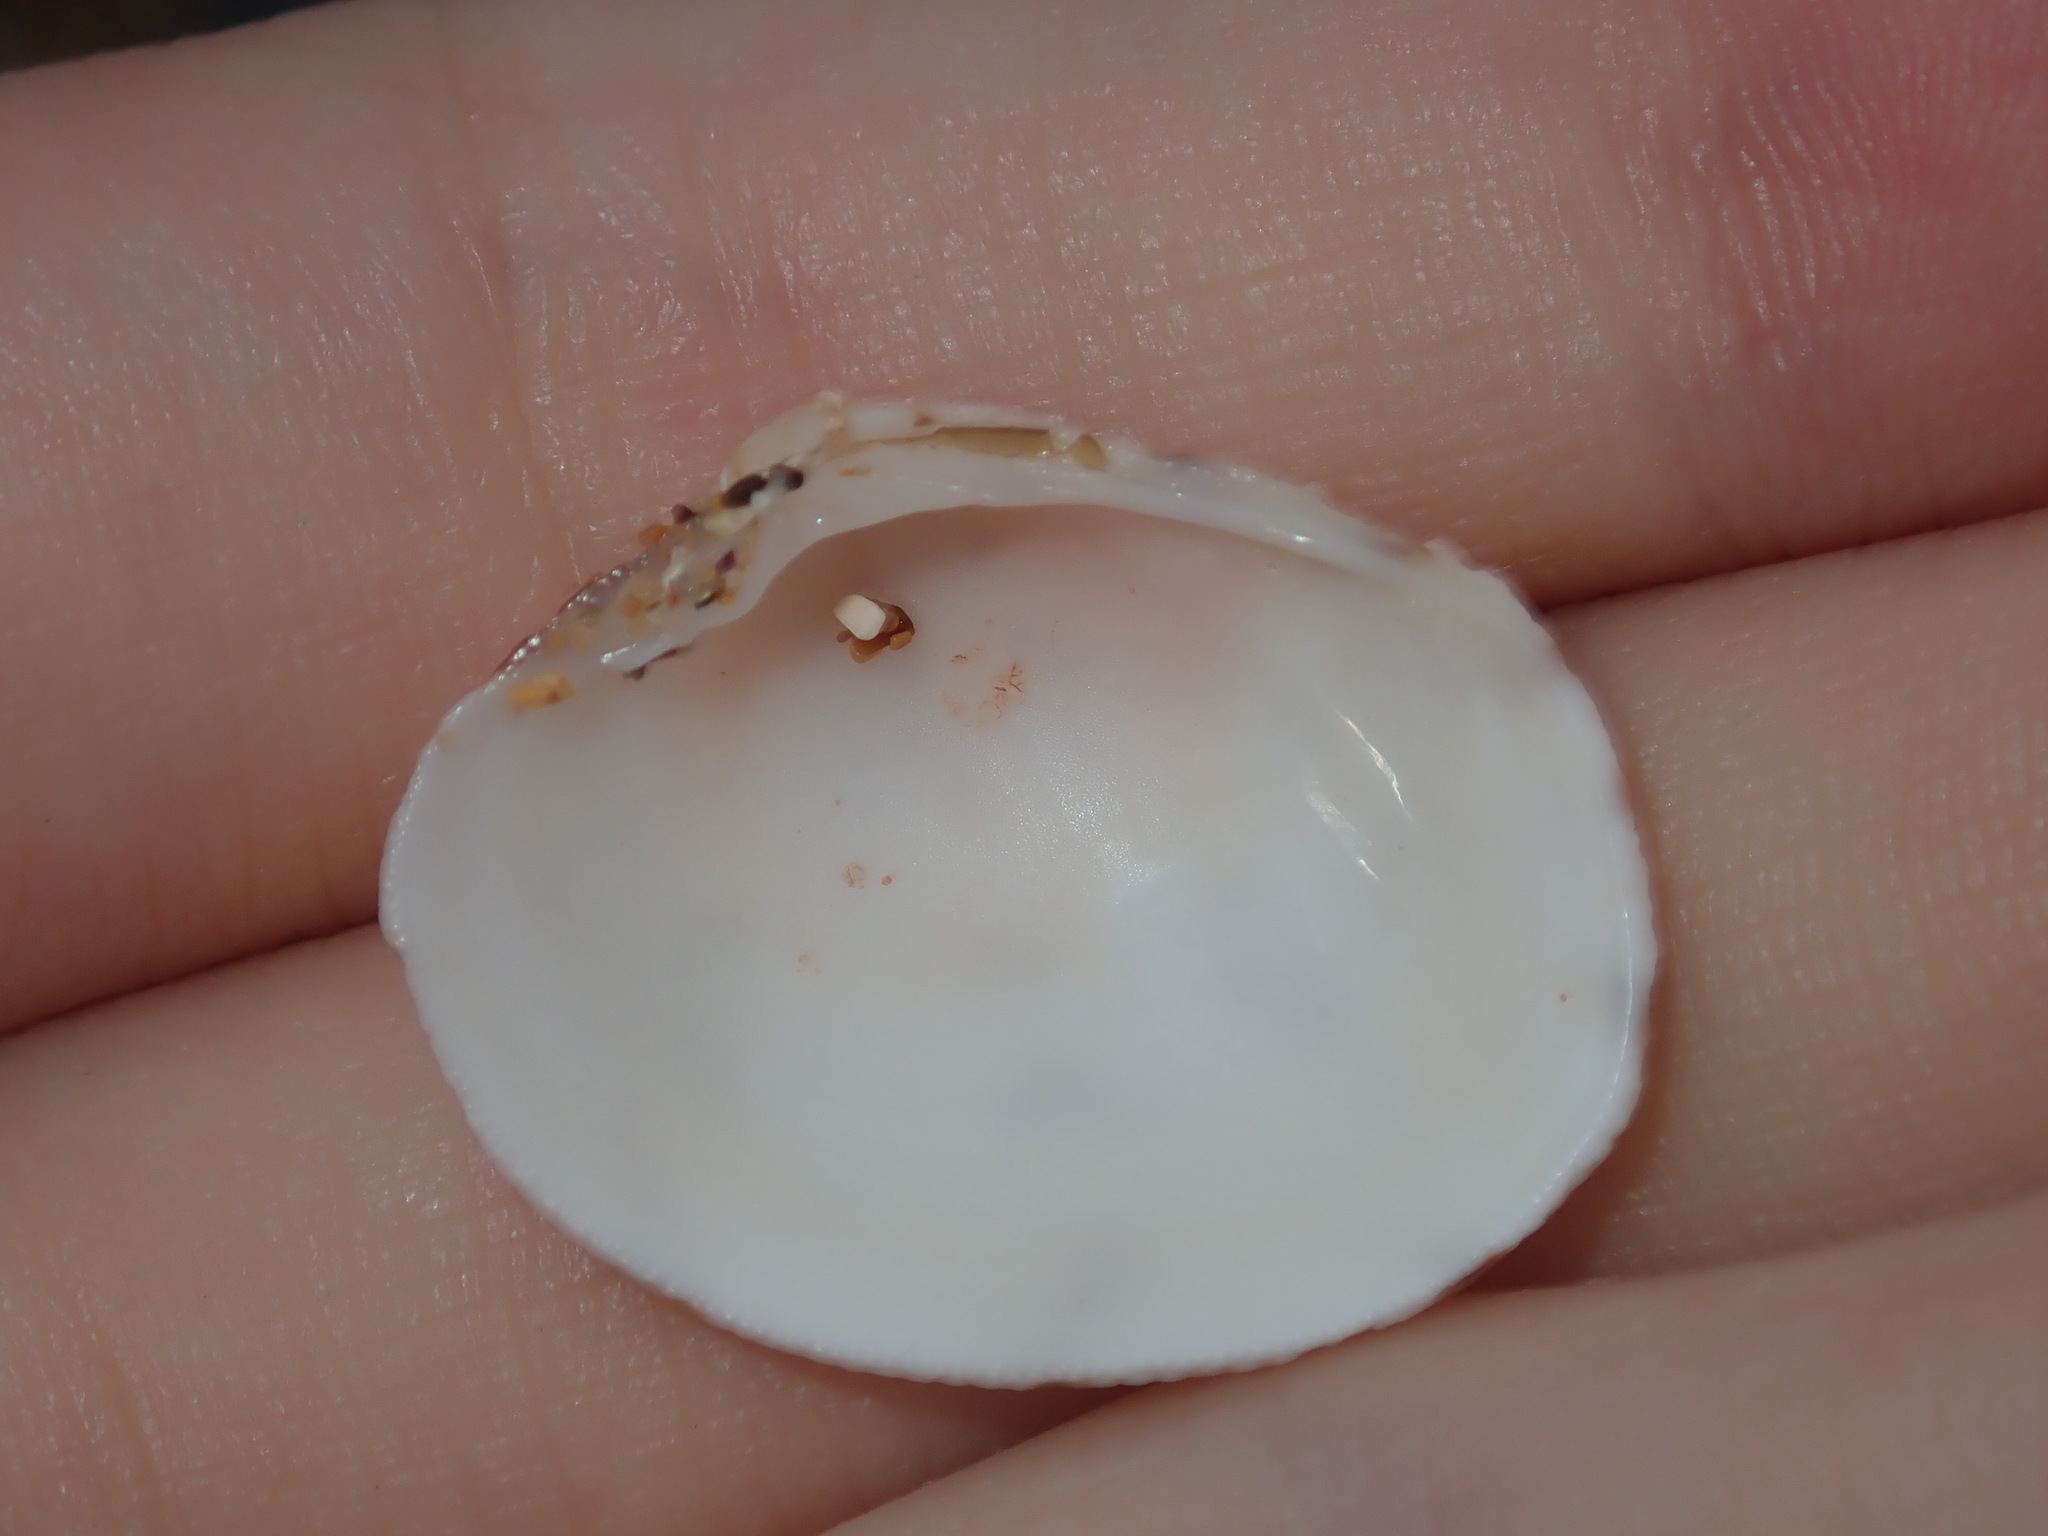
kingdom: Animalia
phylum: Mollusca
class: Bivalvia
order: Venerida
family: Veneridae
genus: Antigona
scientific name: Antigona persimilis
